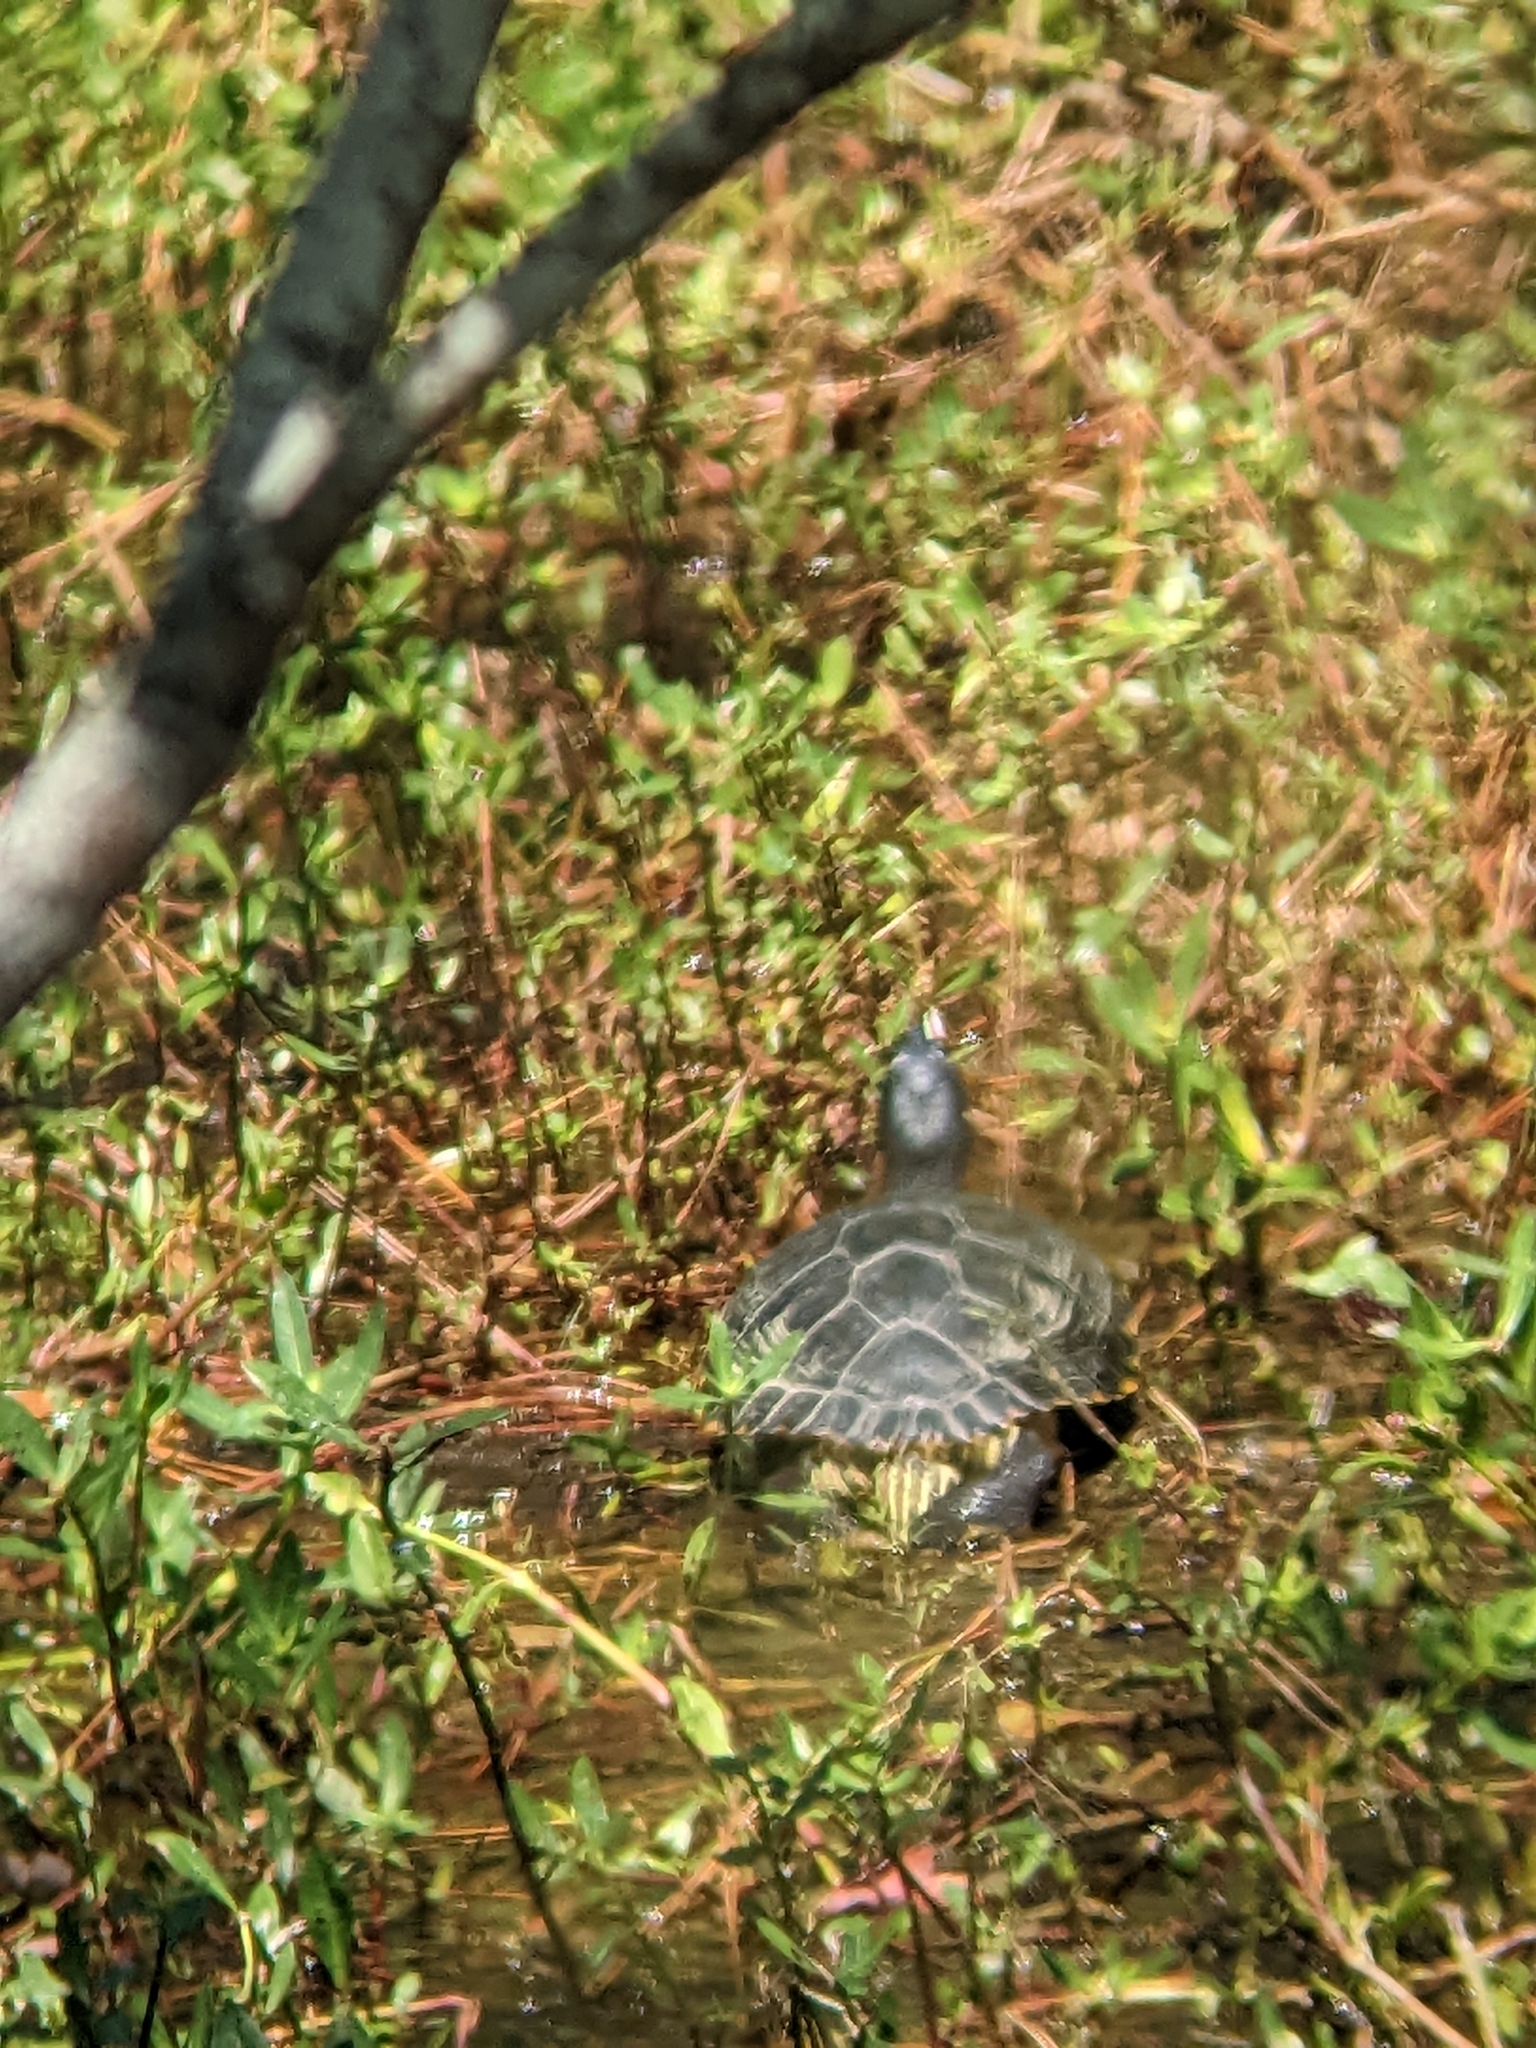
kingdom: Animalia
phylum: Chordata
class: Testudines
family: Emydidae
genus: Trachemys
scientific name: Trachemys scripta
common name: Slider
